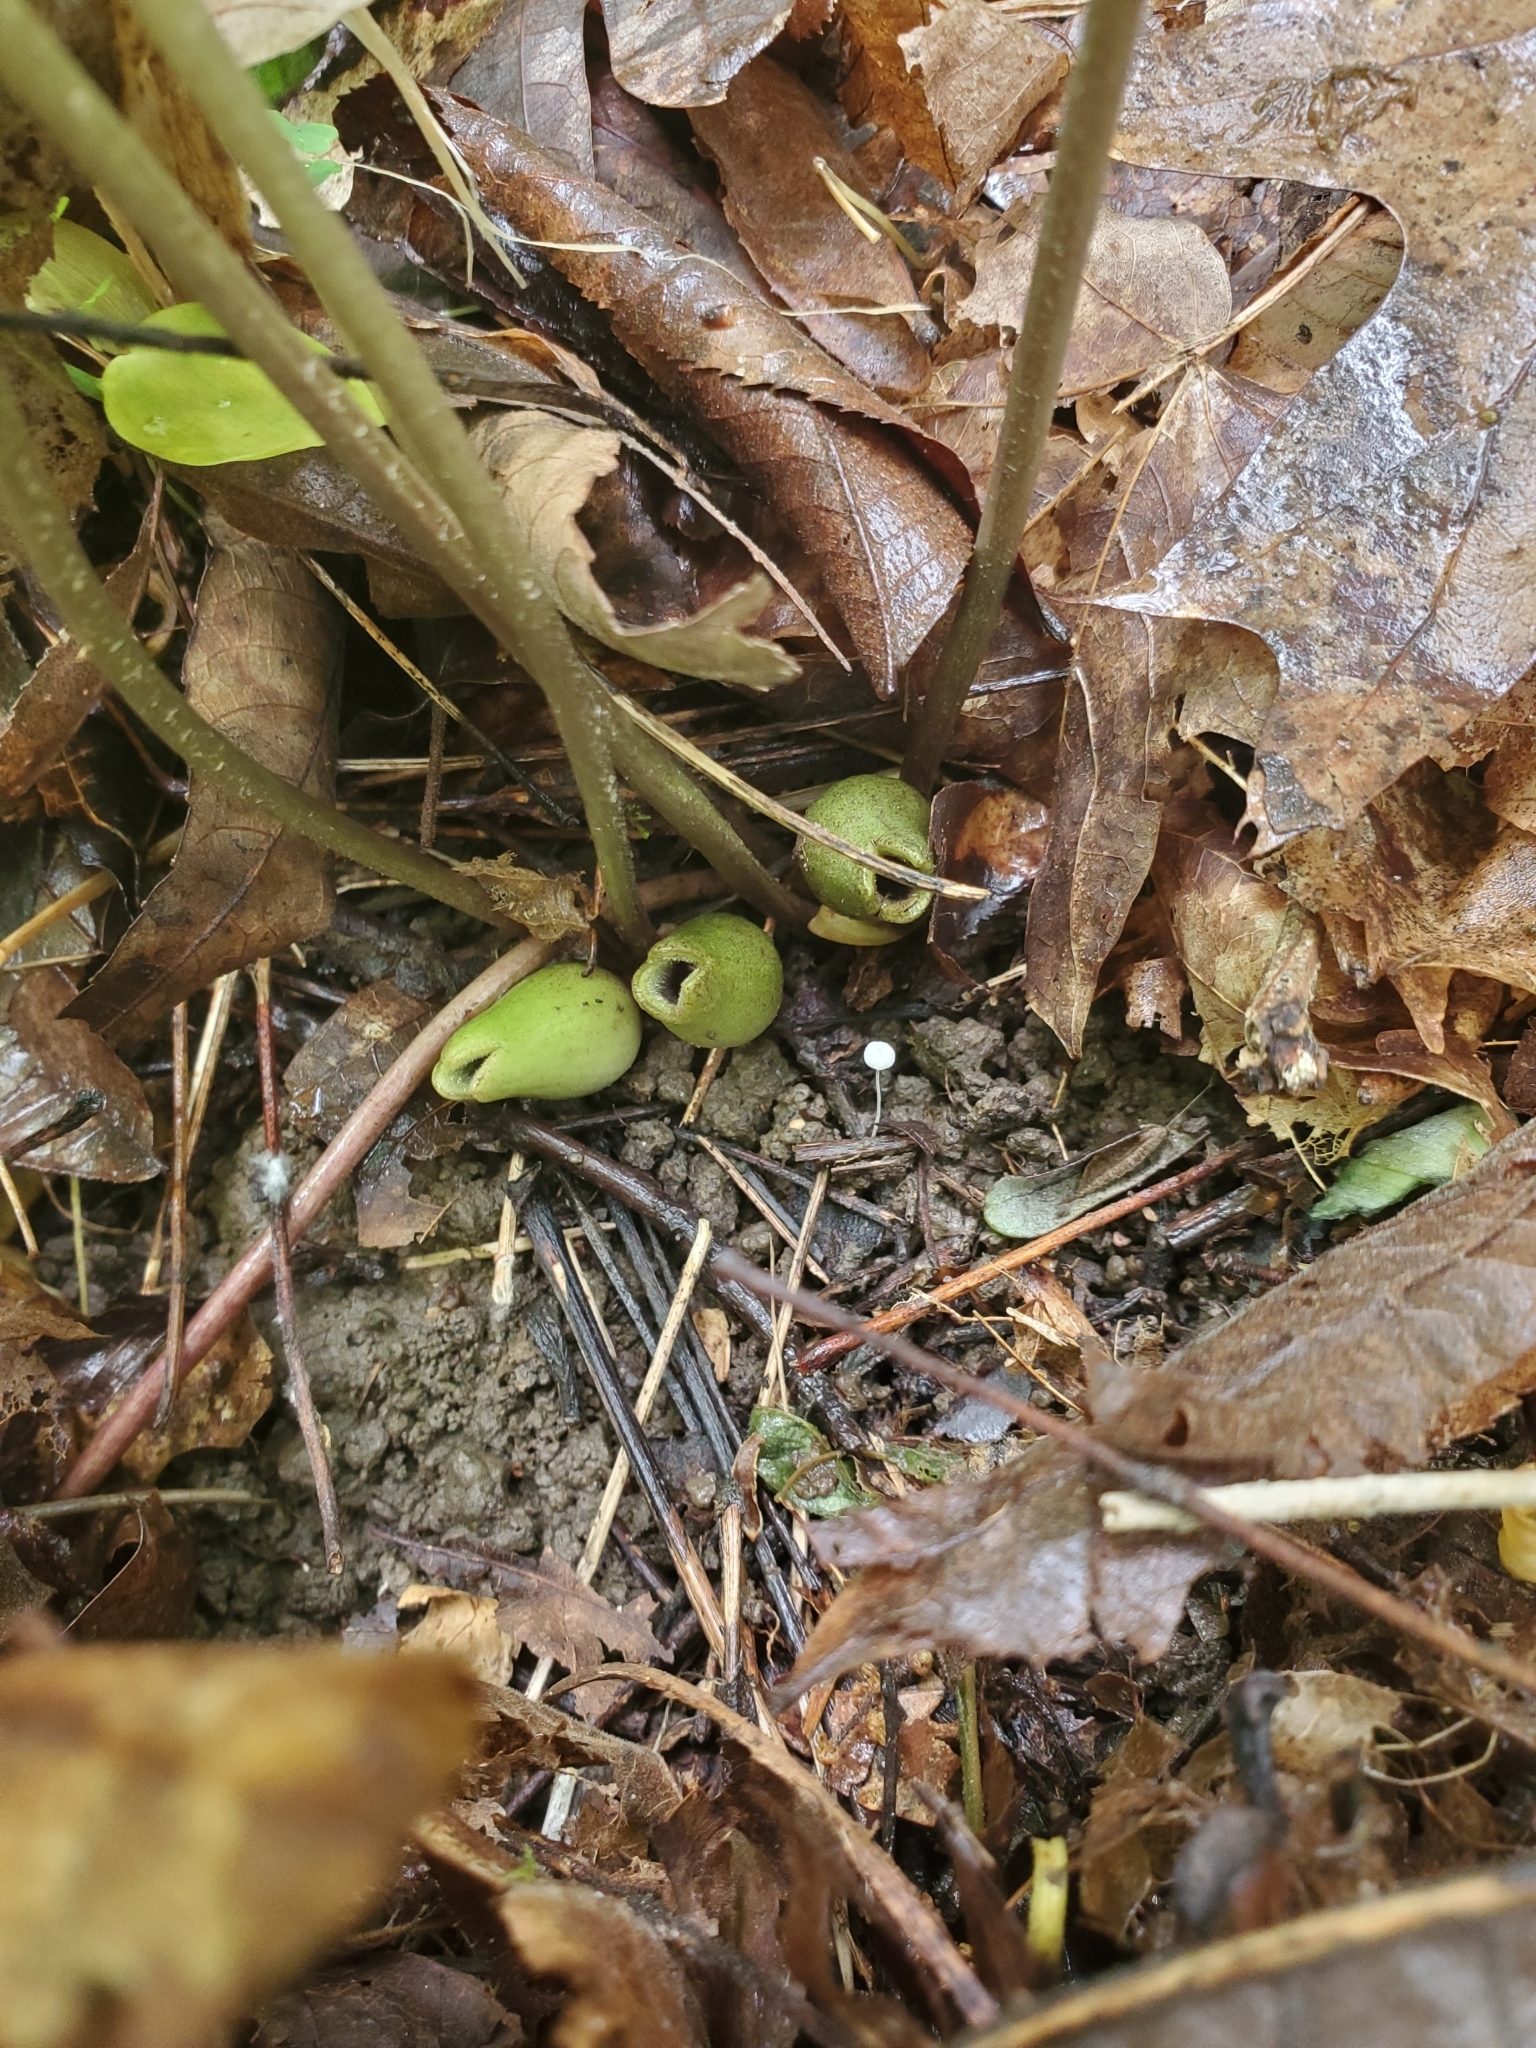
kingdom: Plantae
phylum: Tracheophyta
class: Magnoliopsida
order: Piperales
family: Aristolochiaceae
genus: Hexastylis
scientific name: Hexastylis arifolia
